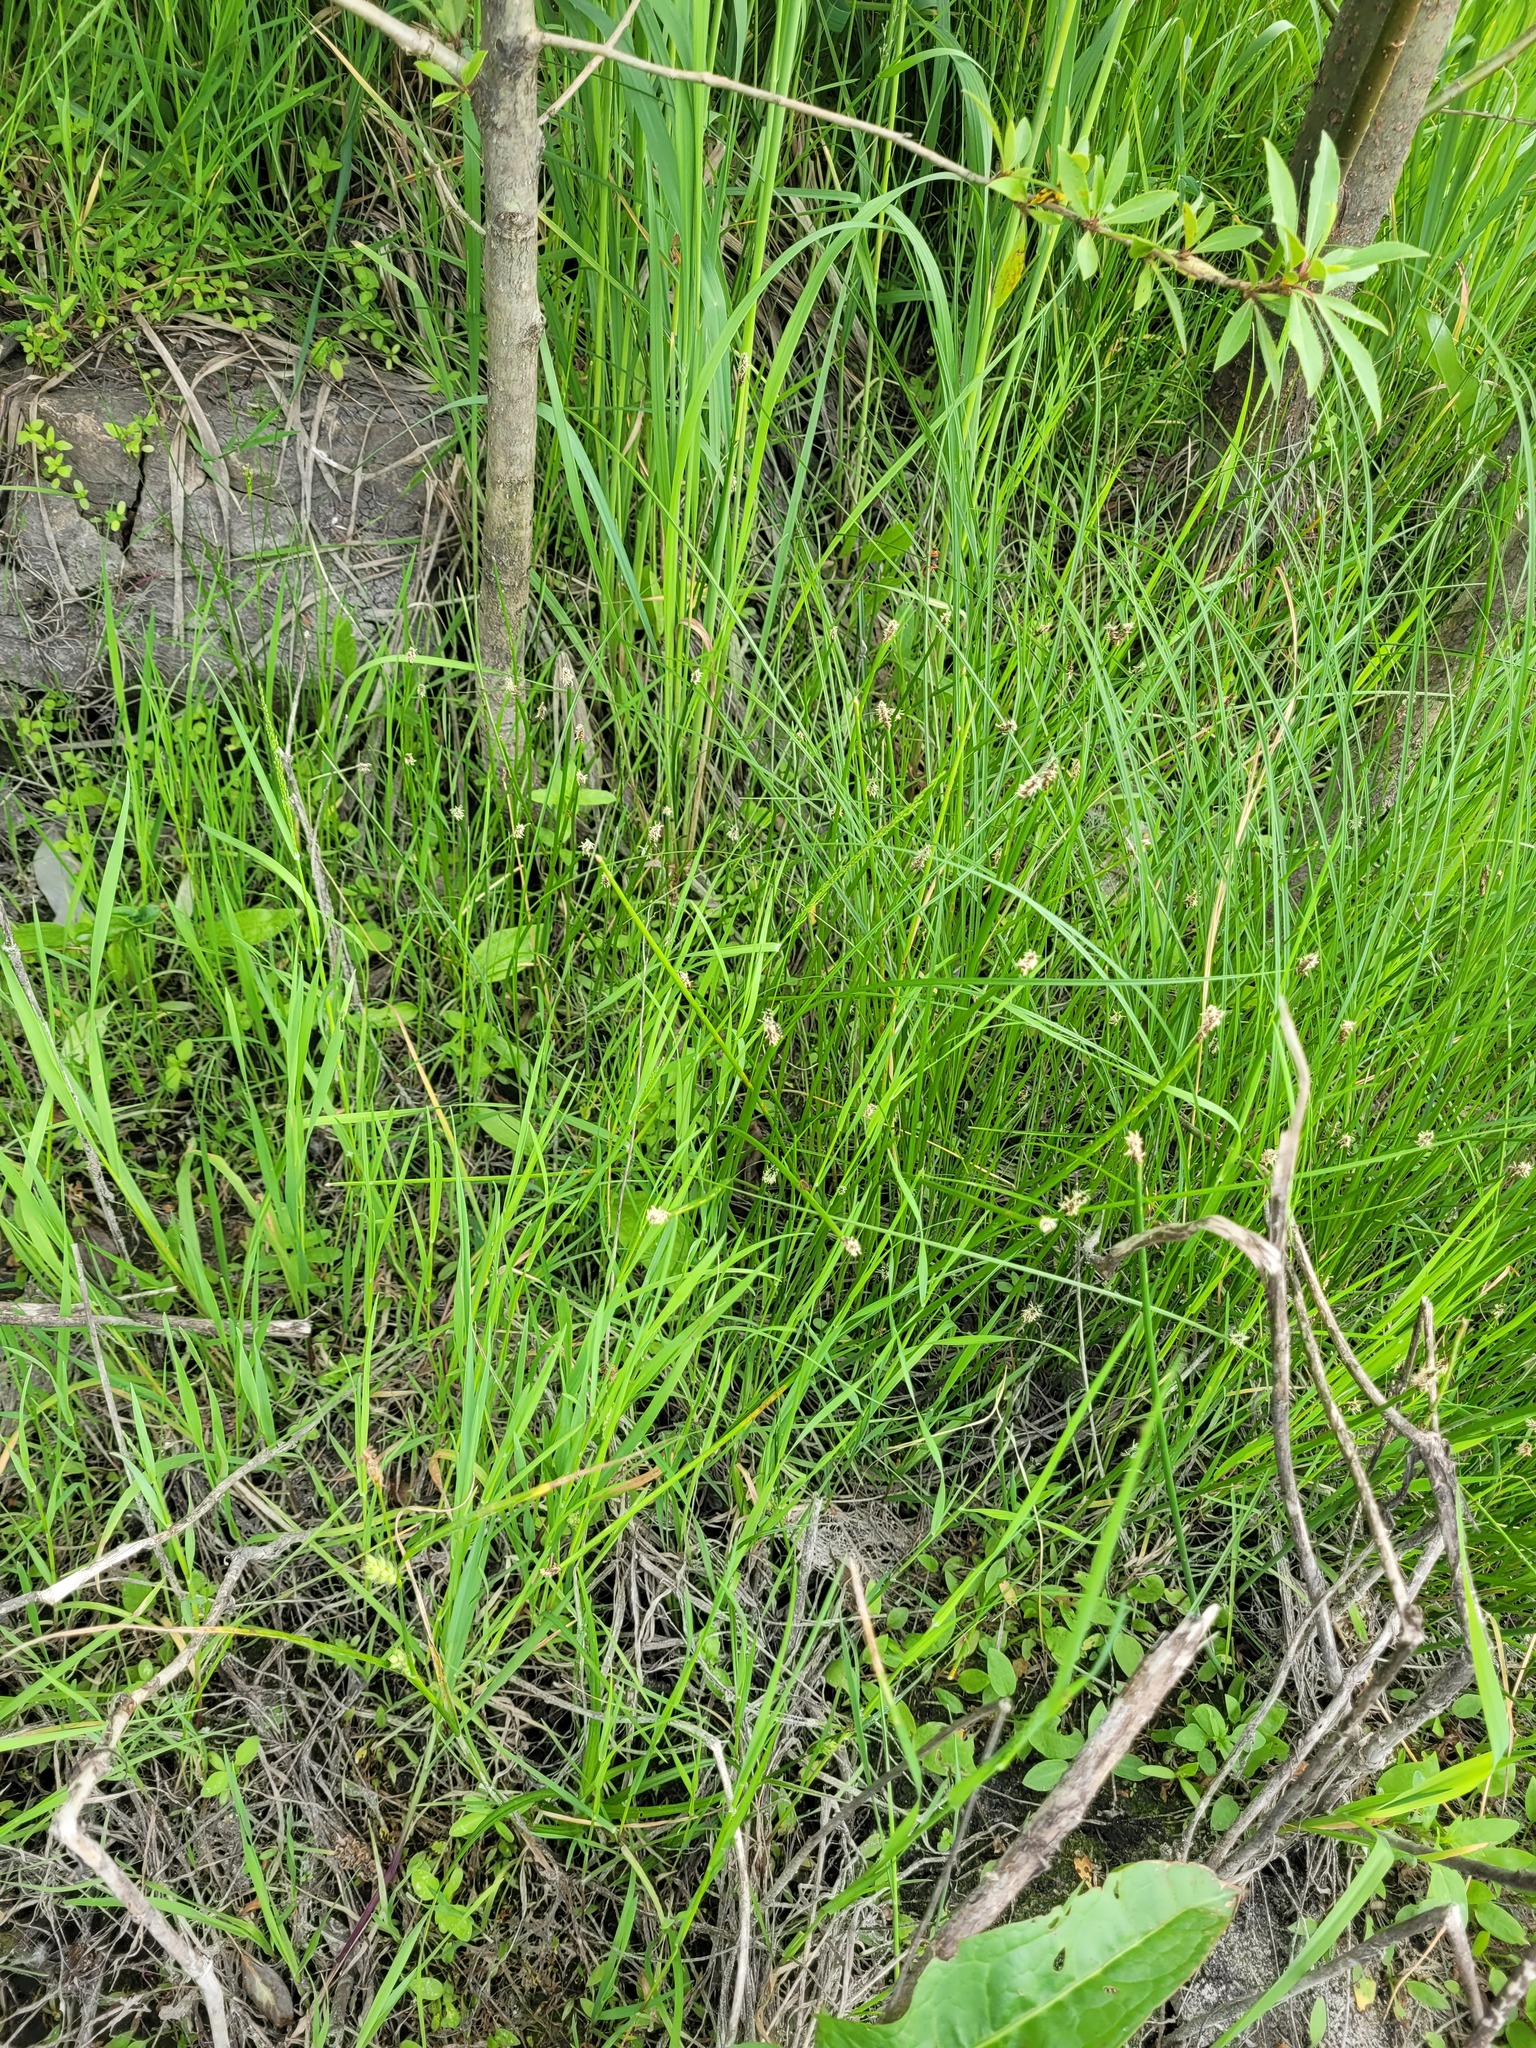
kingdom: Plantae
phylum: Tracheophyta
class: Liliopsida
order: Poales
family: Cyperaceae
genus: Eleocharis
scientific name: Eleocharis palustris
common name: Common spike-rush
